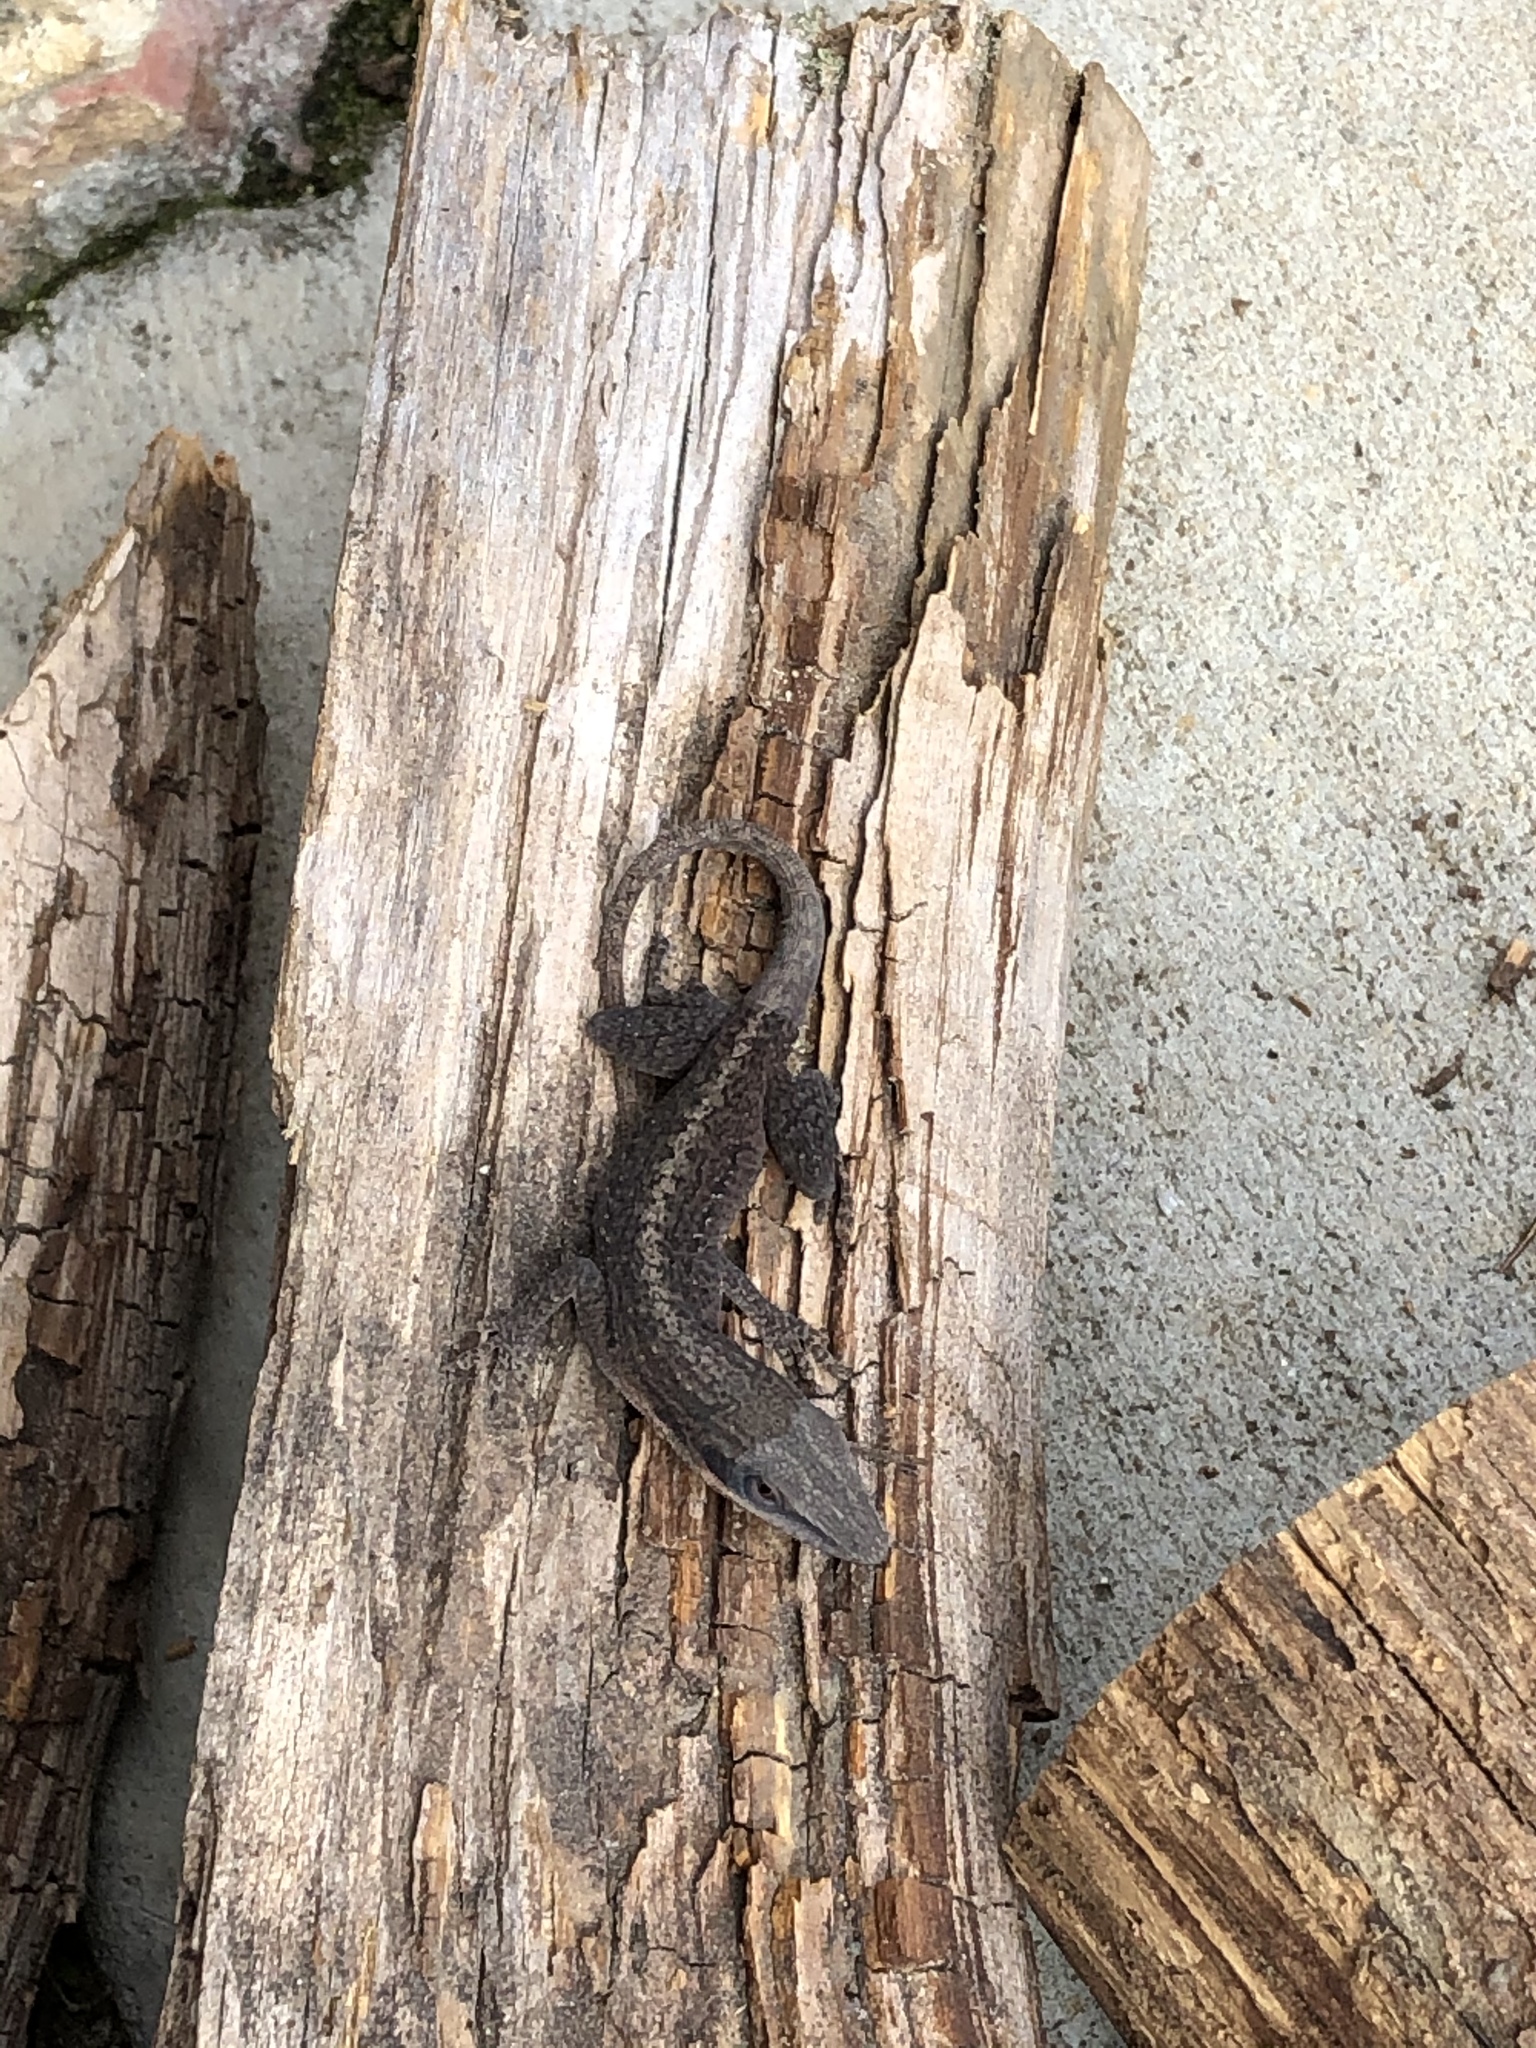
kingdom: Animalia
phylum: Chordata
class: Squamata
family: Dactyloidae
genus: Anolis
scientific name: Anolis carolinensis
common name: Green anole
